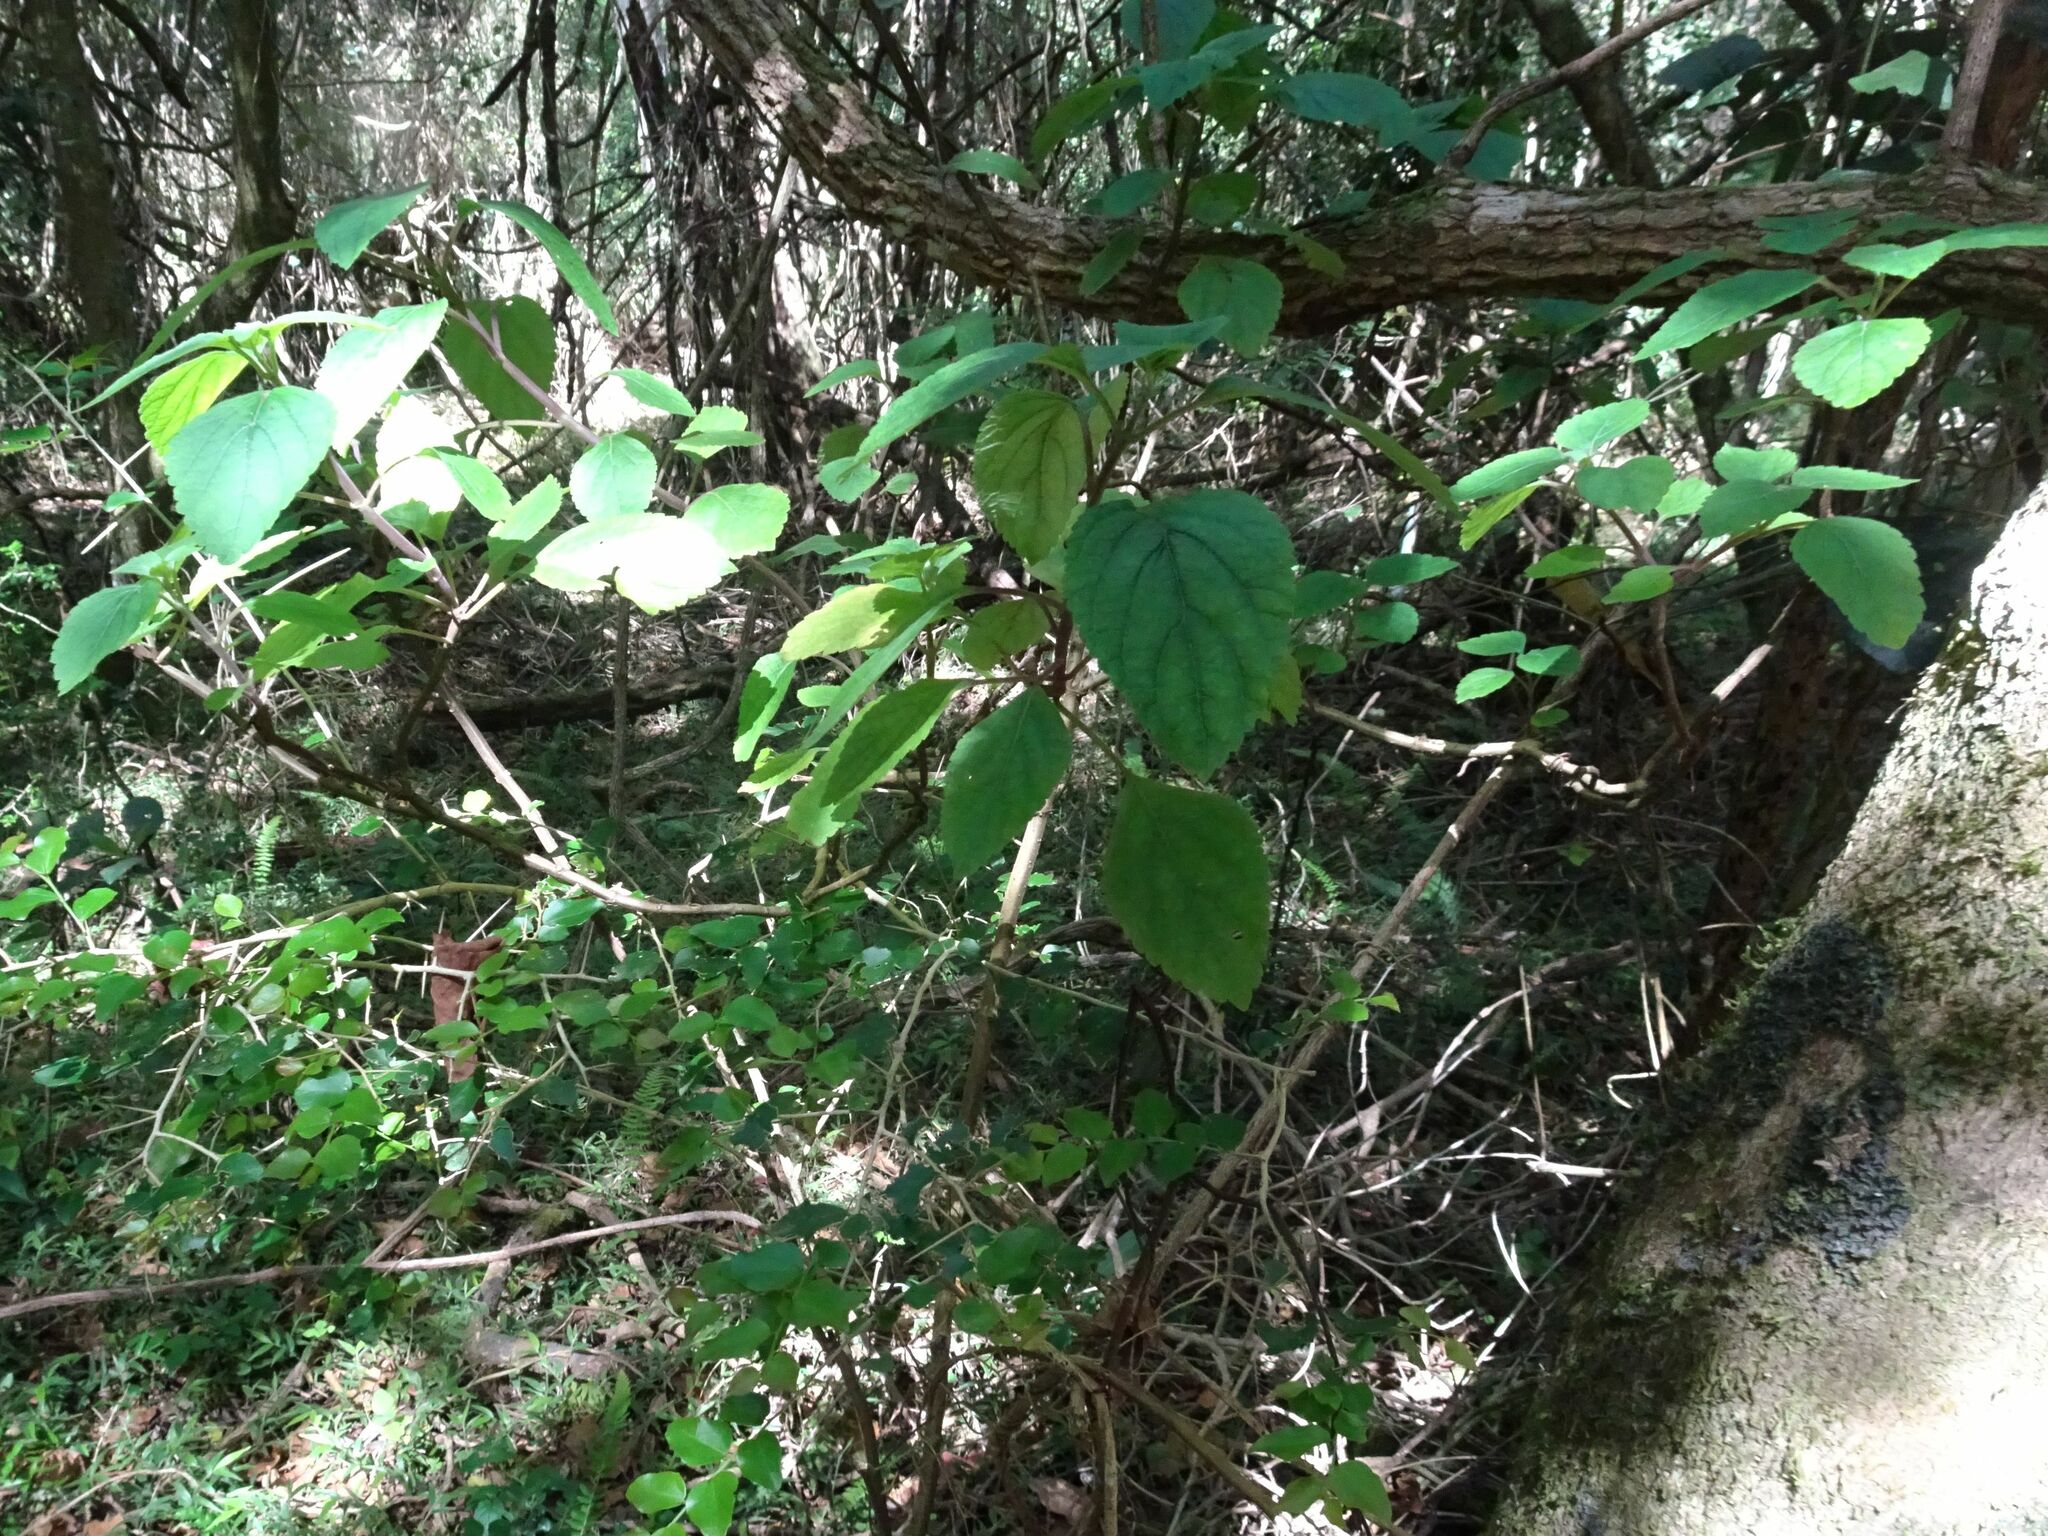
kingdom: Plantae
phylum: Tracheophyta
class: Magnoliopsida
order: Lamiales
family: Lamiaceae
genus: Plectranthus
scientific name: Plectranthus fruticosus
